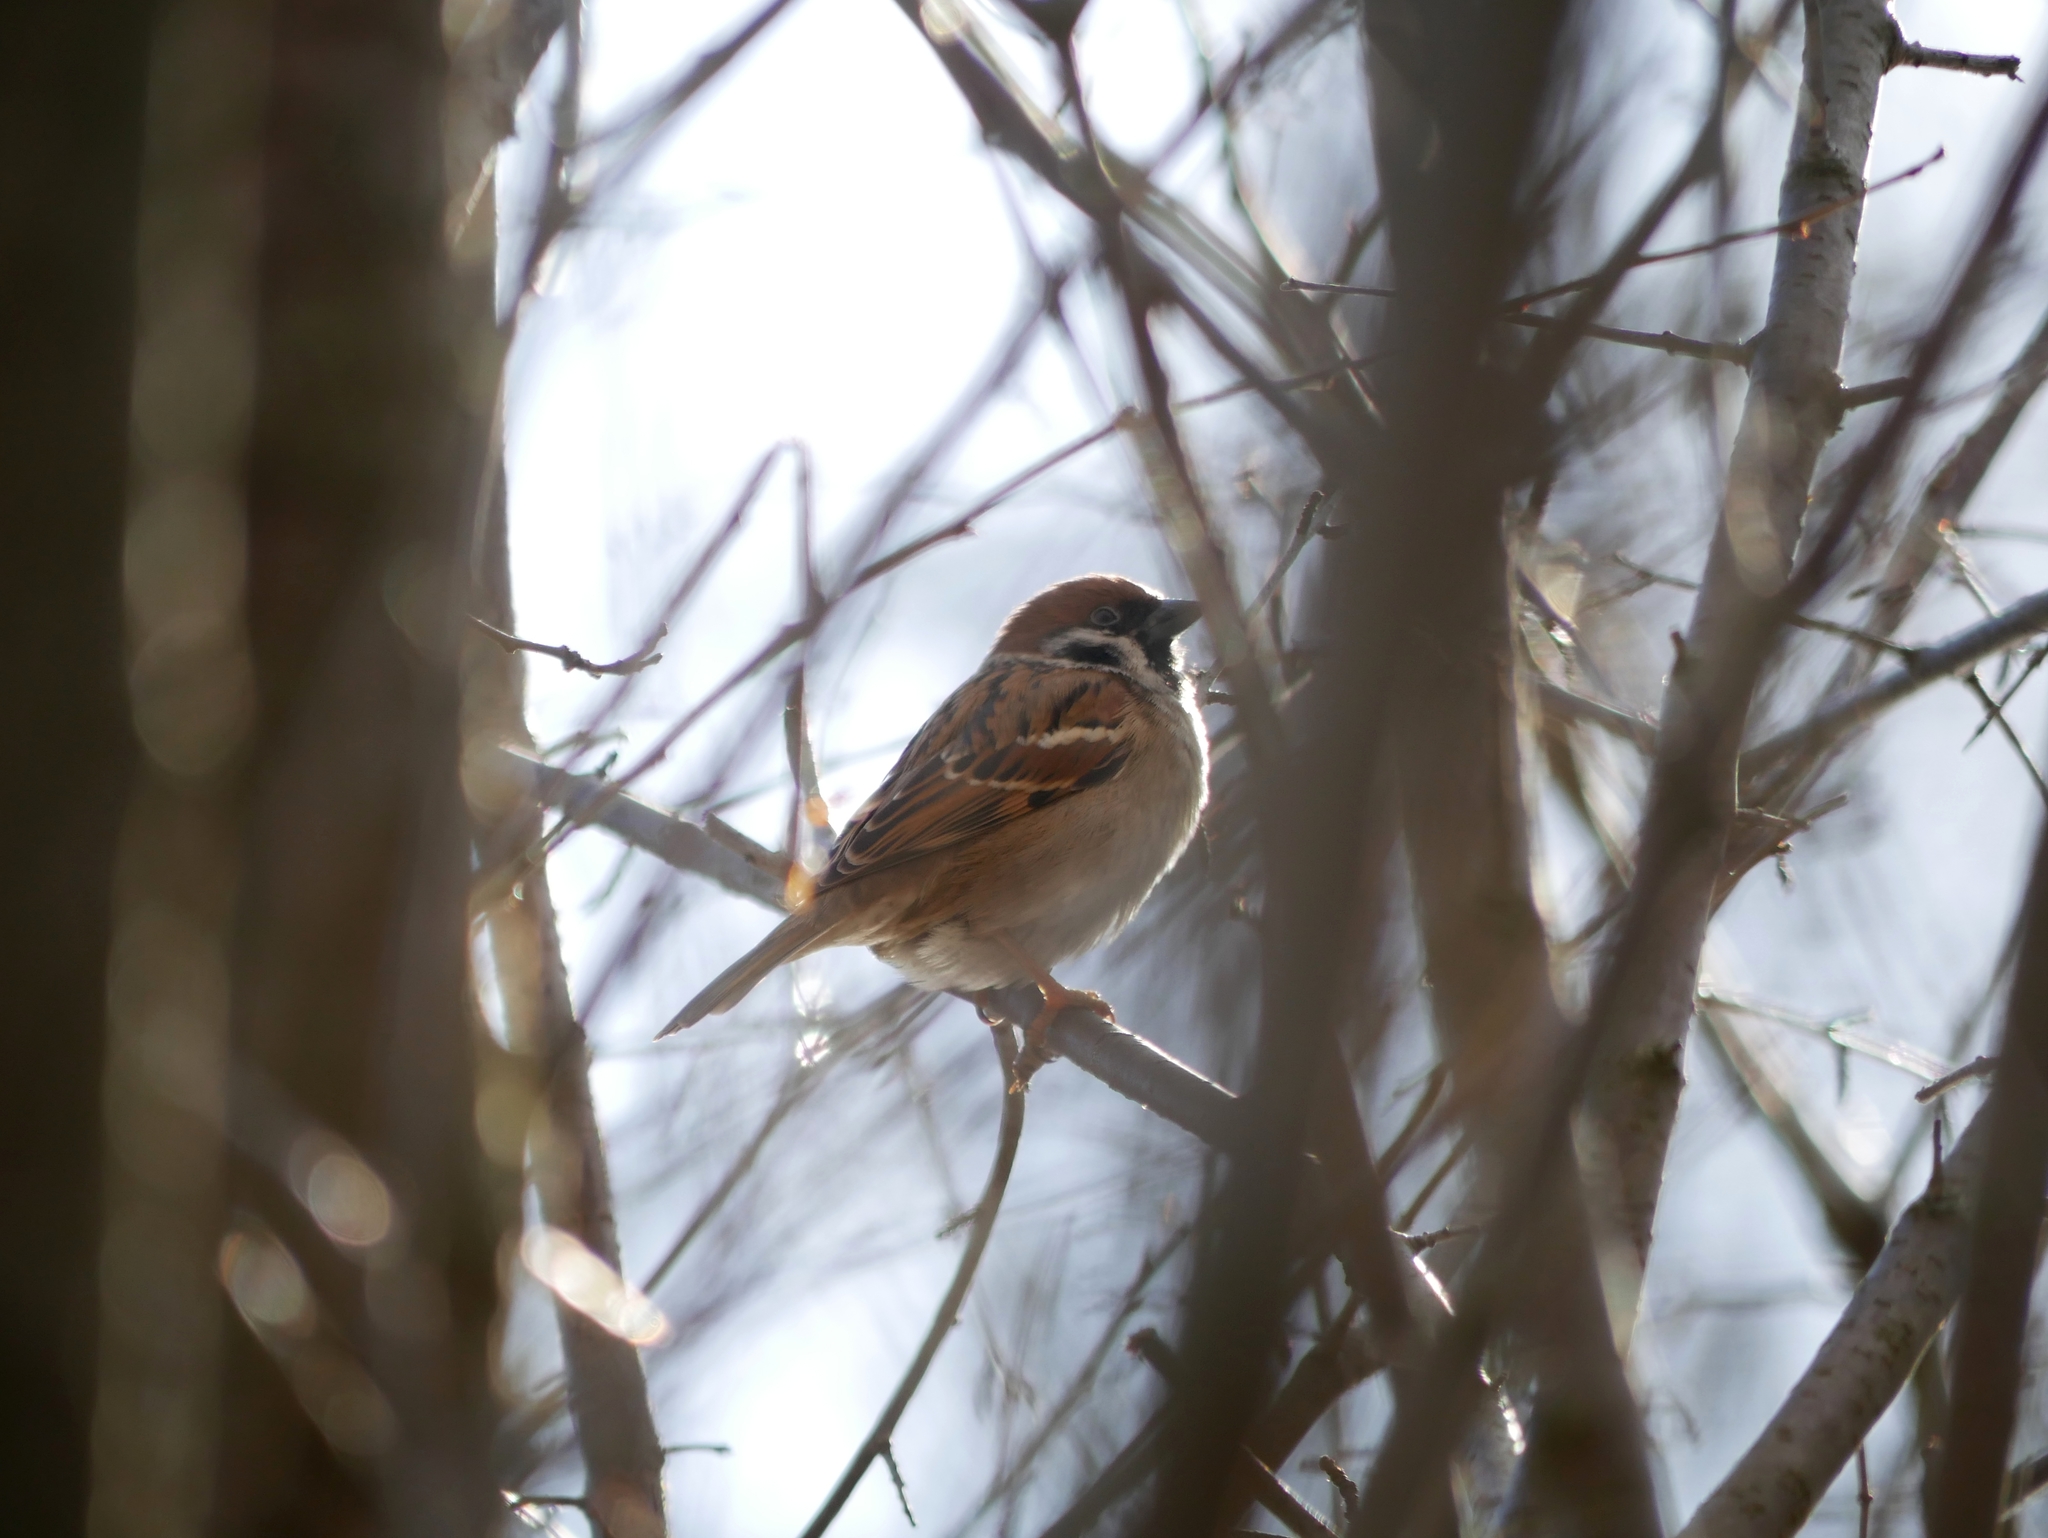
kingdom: Animalia
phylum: Chordata
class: Aves
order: Passeriformes
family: Passeridae
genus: Passer
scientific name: Passer montanus
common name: Eurasian tree sparrow
